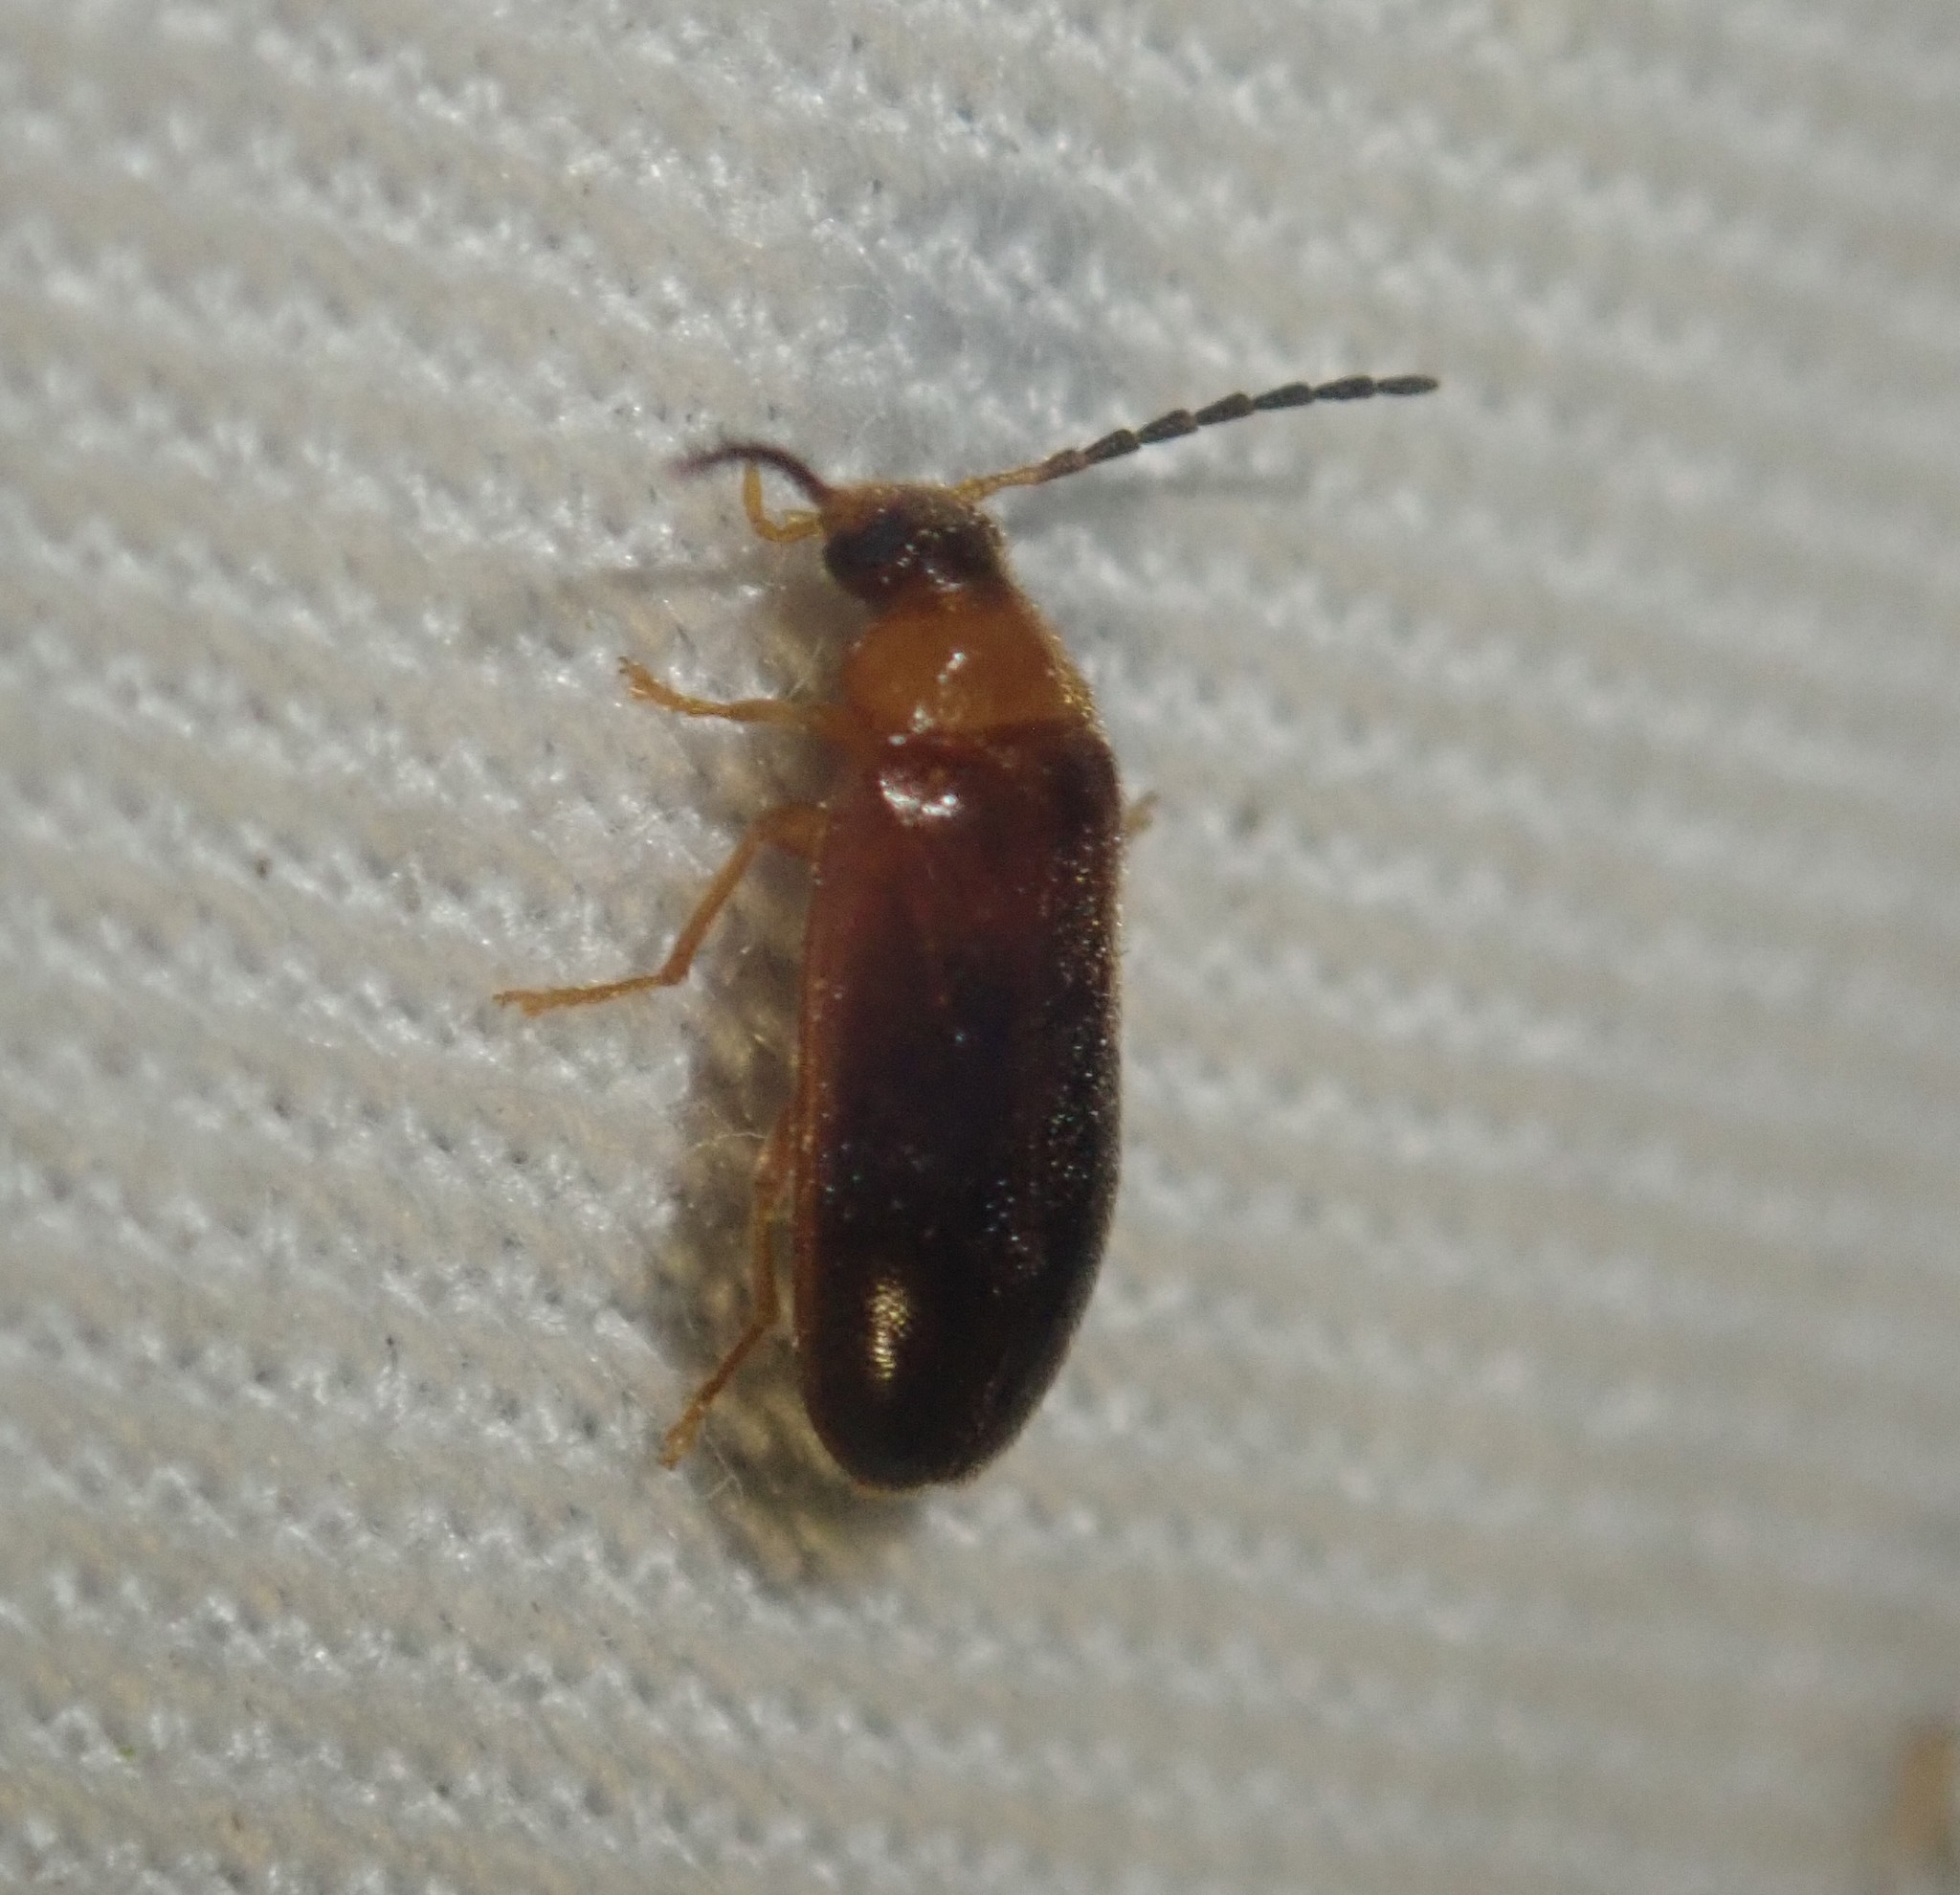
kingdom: Animalia
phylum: Arthropoda
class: Insecta
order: Coleoptera
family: Melandryidae
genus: Conopalpus
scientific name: Conopalpus testaceus
